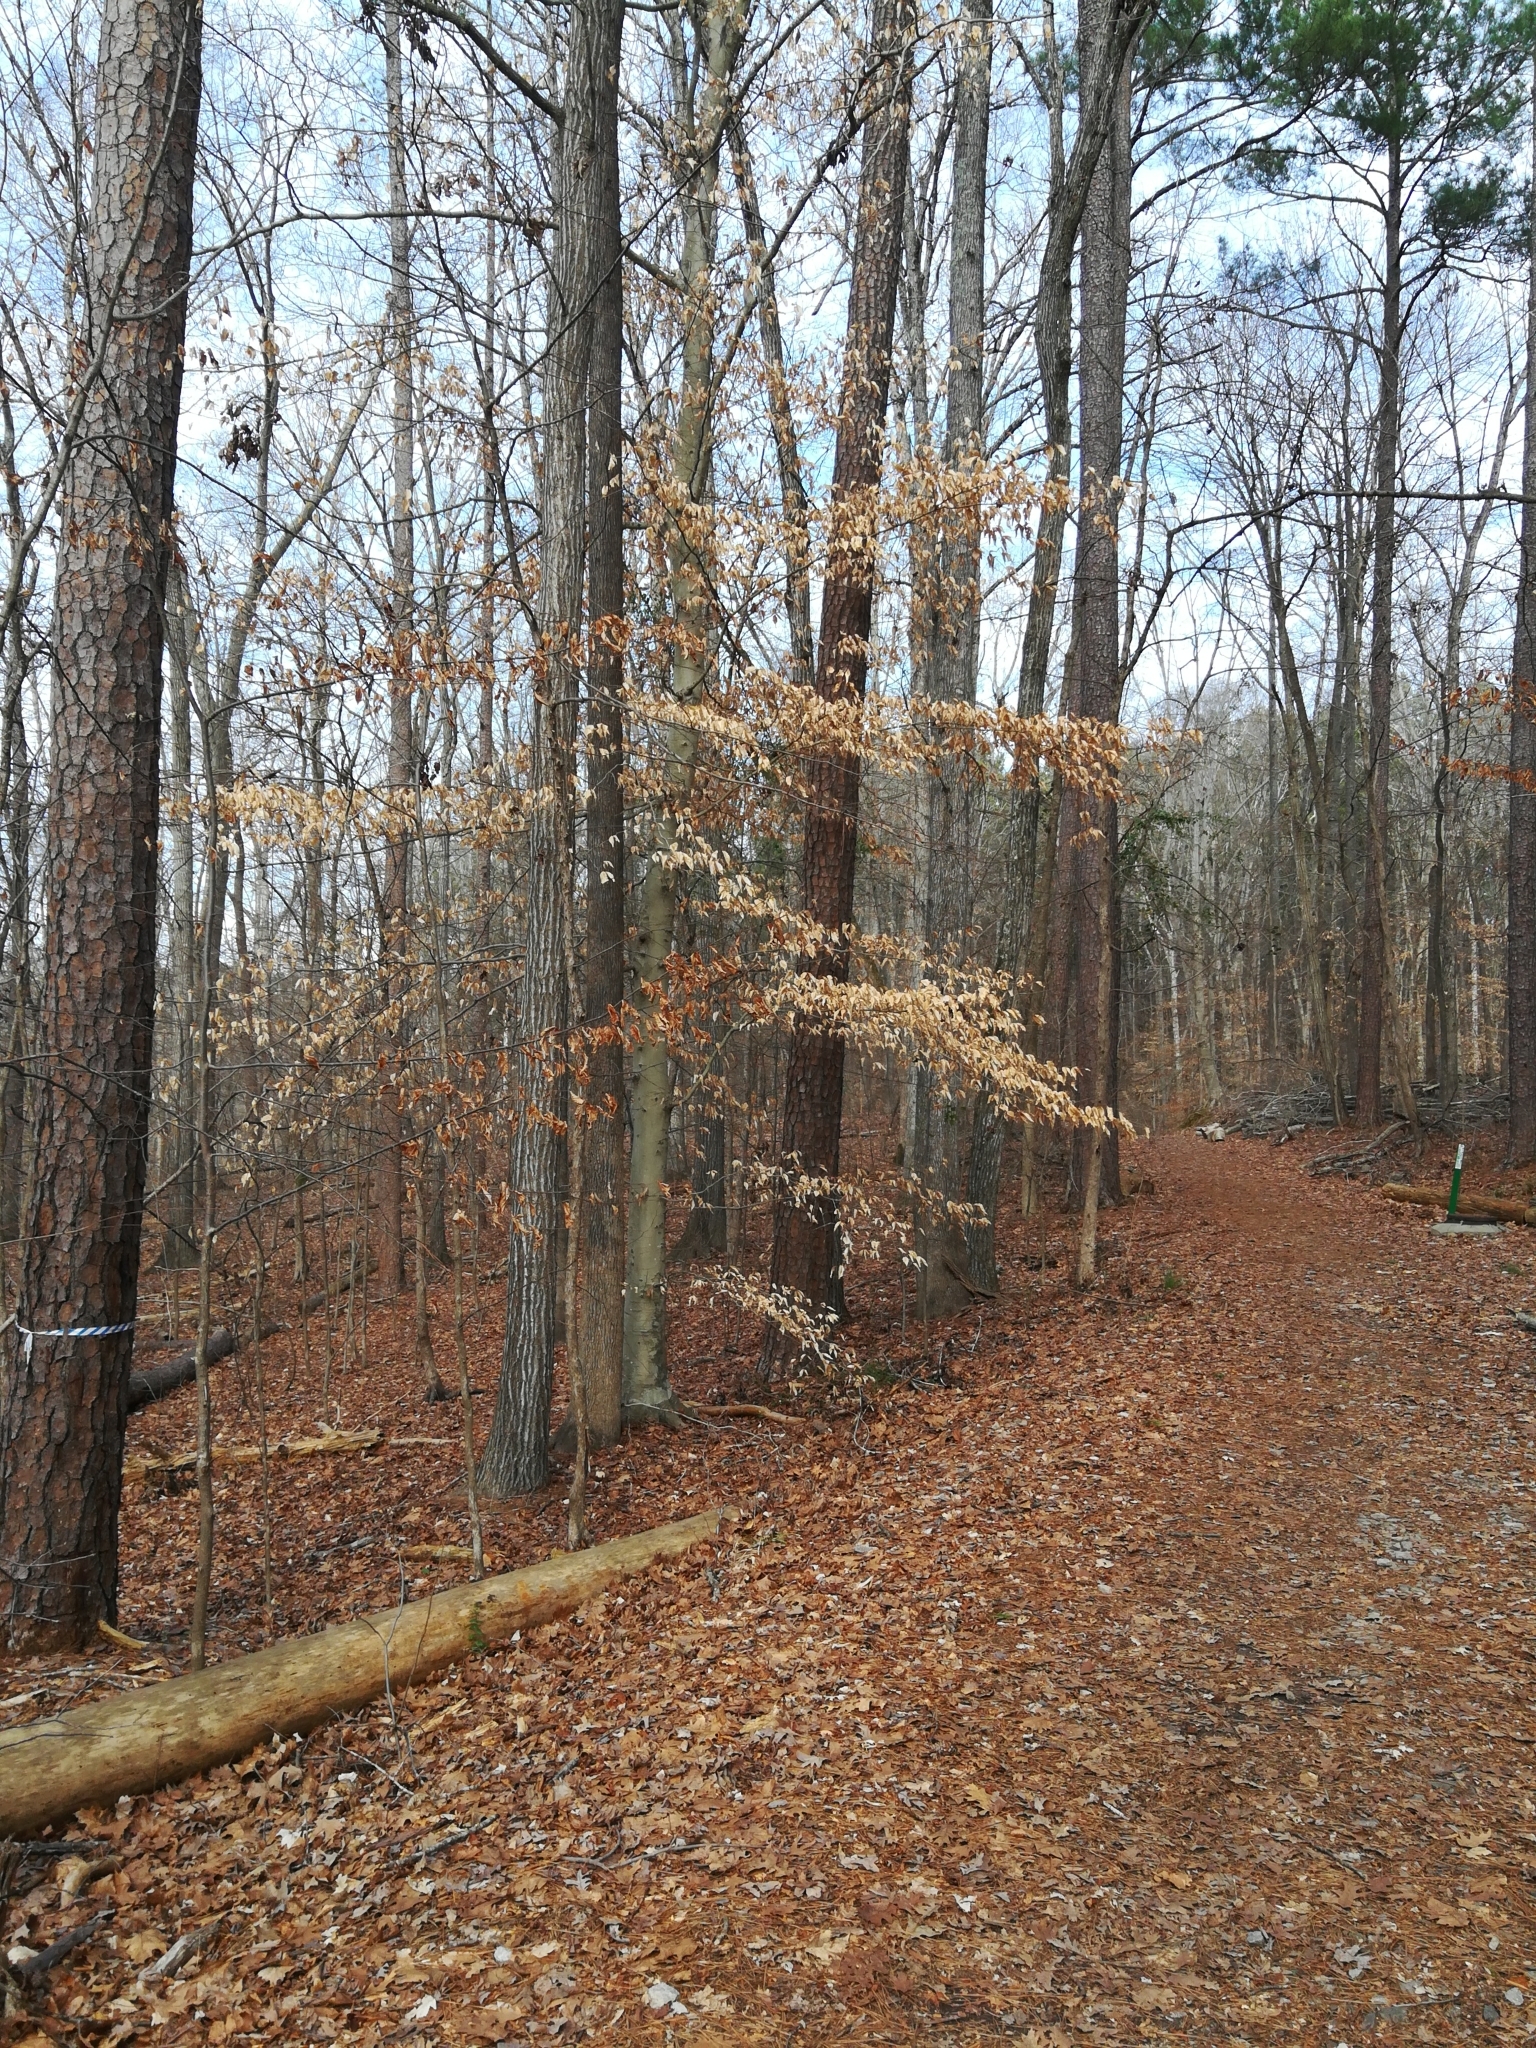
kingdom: Plantae
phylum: Tracheophyta
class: Magnoliopsida
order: Fagales
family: Fagaceae
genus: Fagus
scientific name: Fagus grandifolia
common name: American beech
